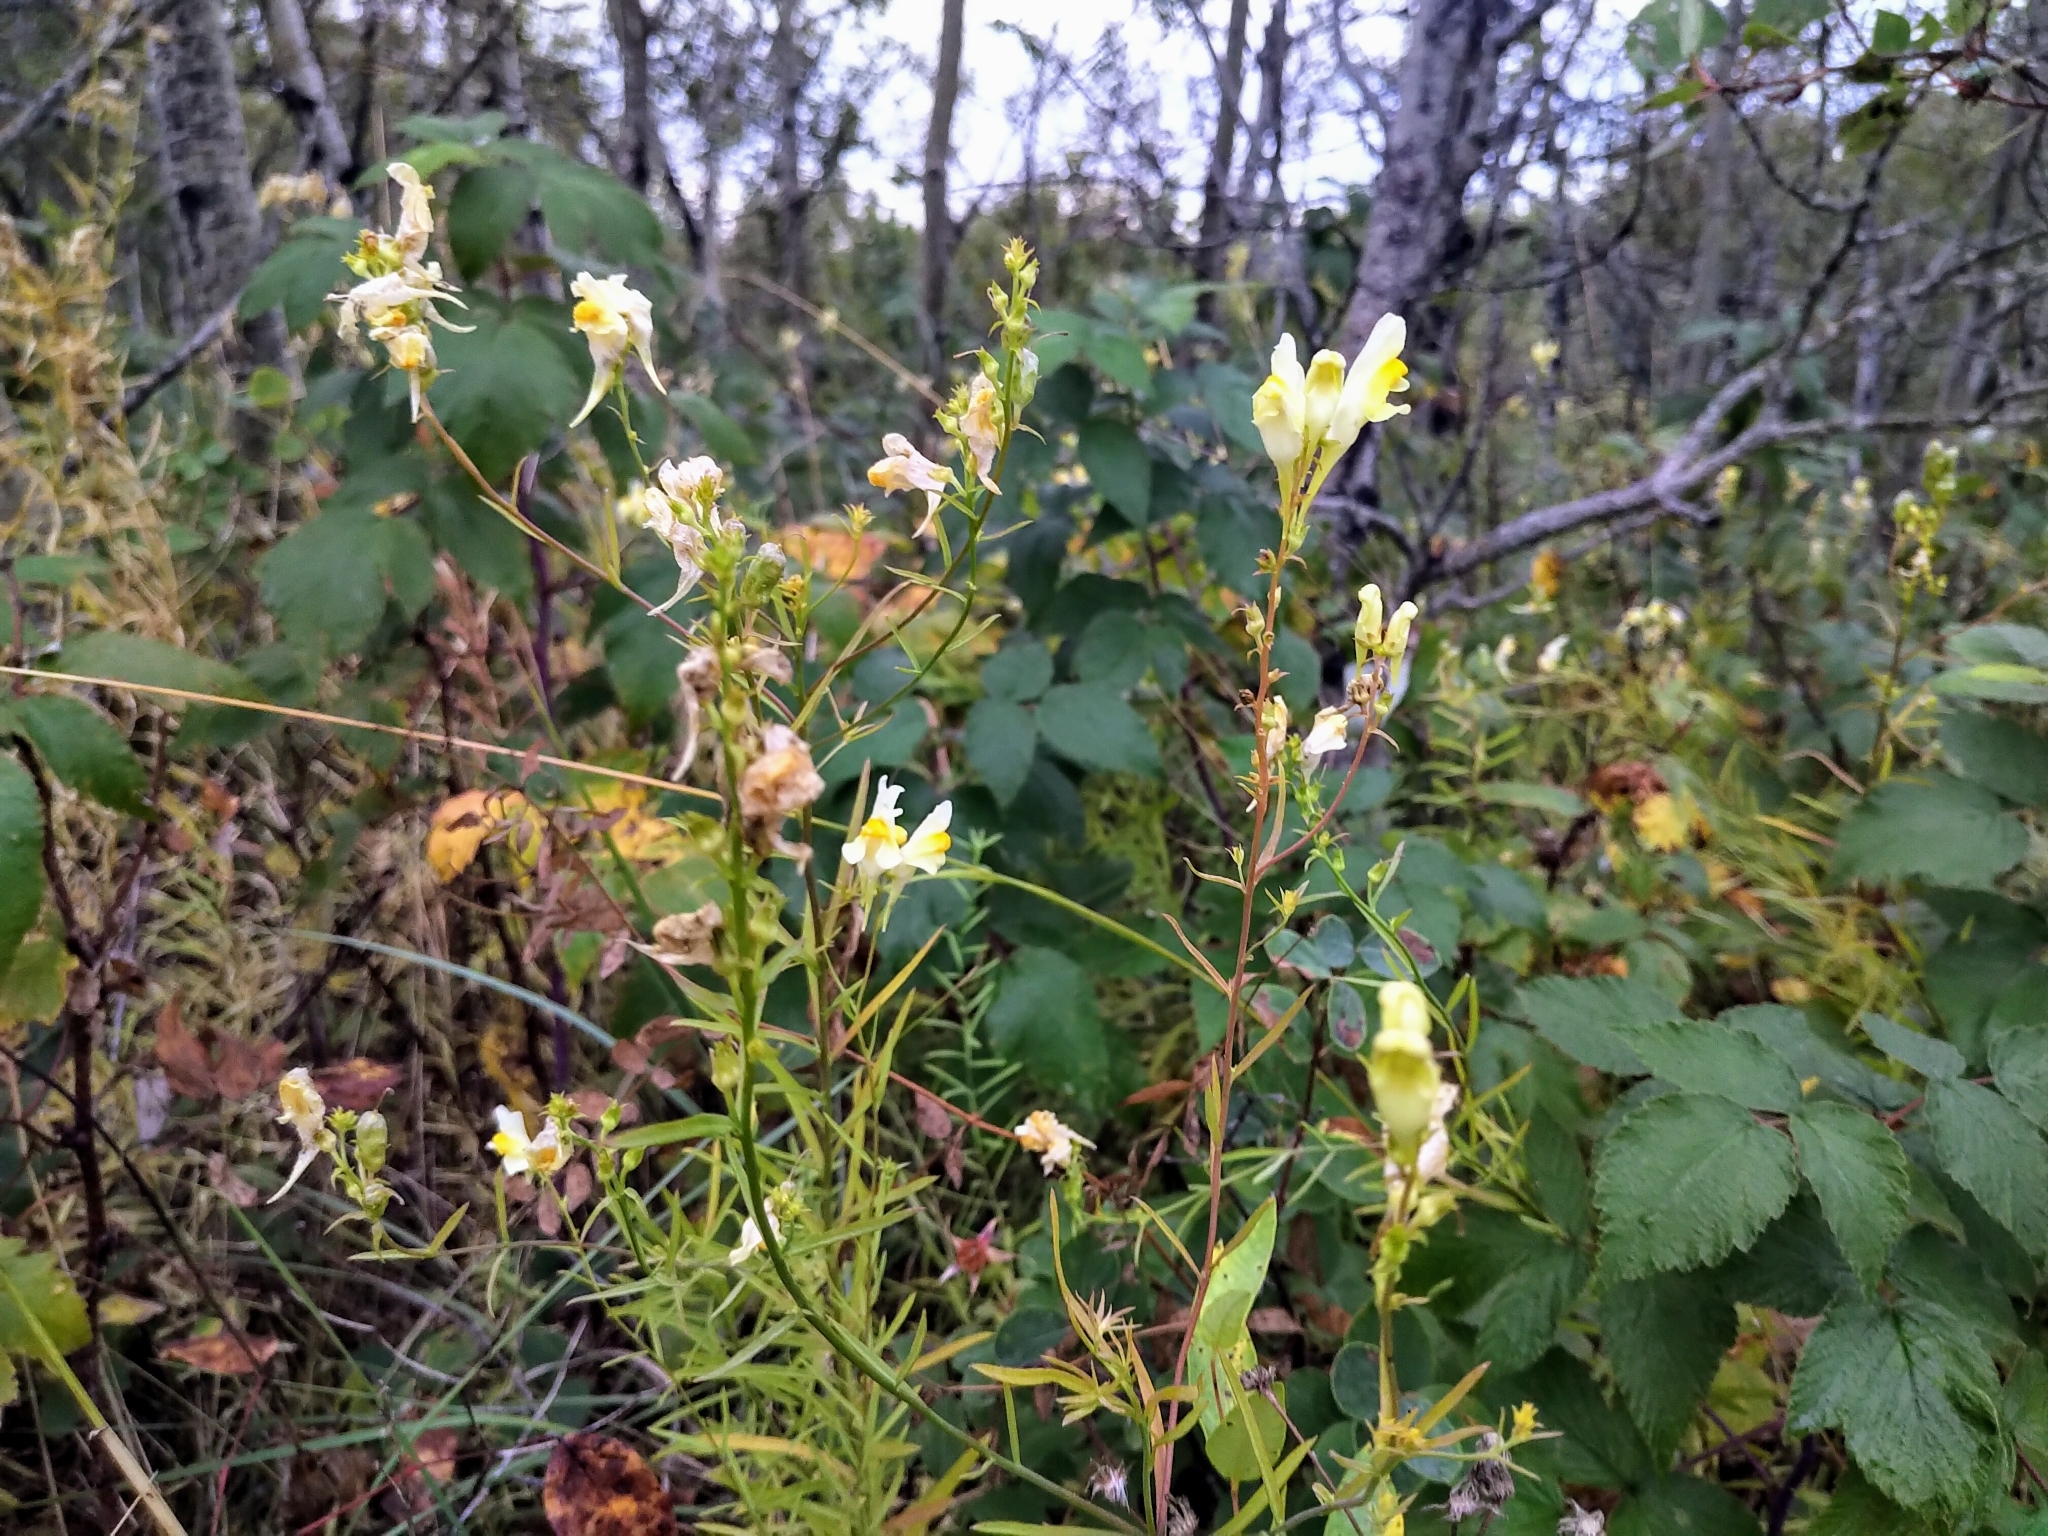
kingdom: Plantae
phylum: Tracheophyta
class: Magnoliopsida
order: Lamiales
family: Plantaginaceae
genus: Linaria
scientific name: Linaria vulgaris
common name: Butter and eggs
